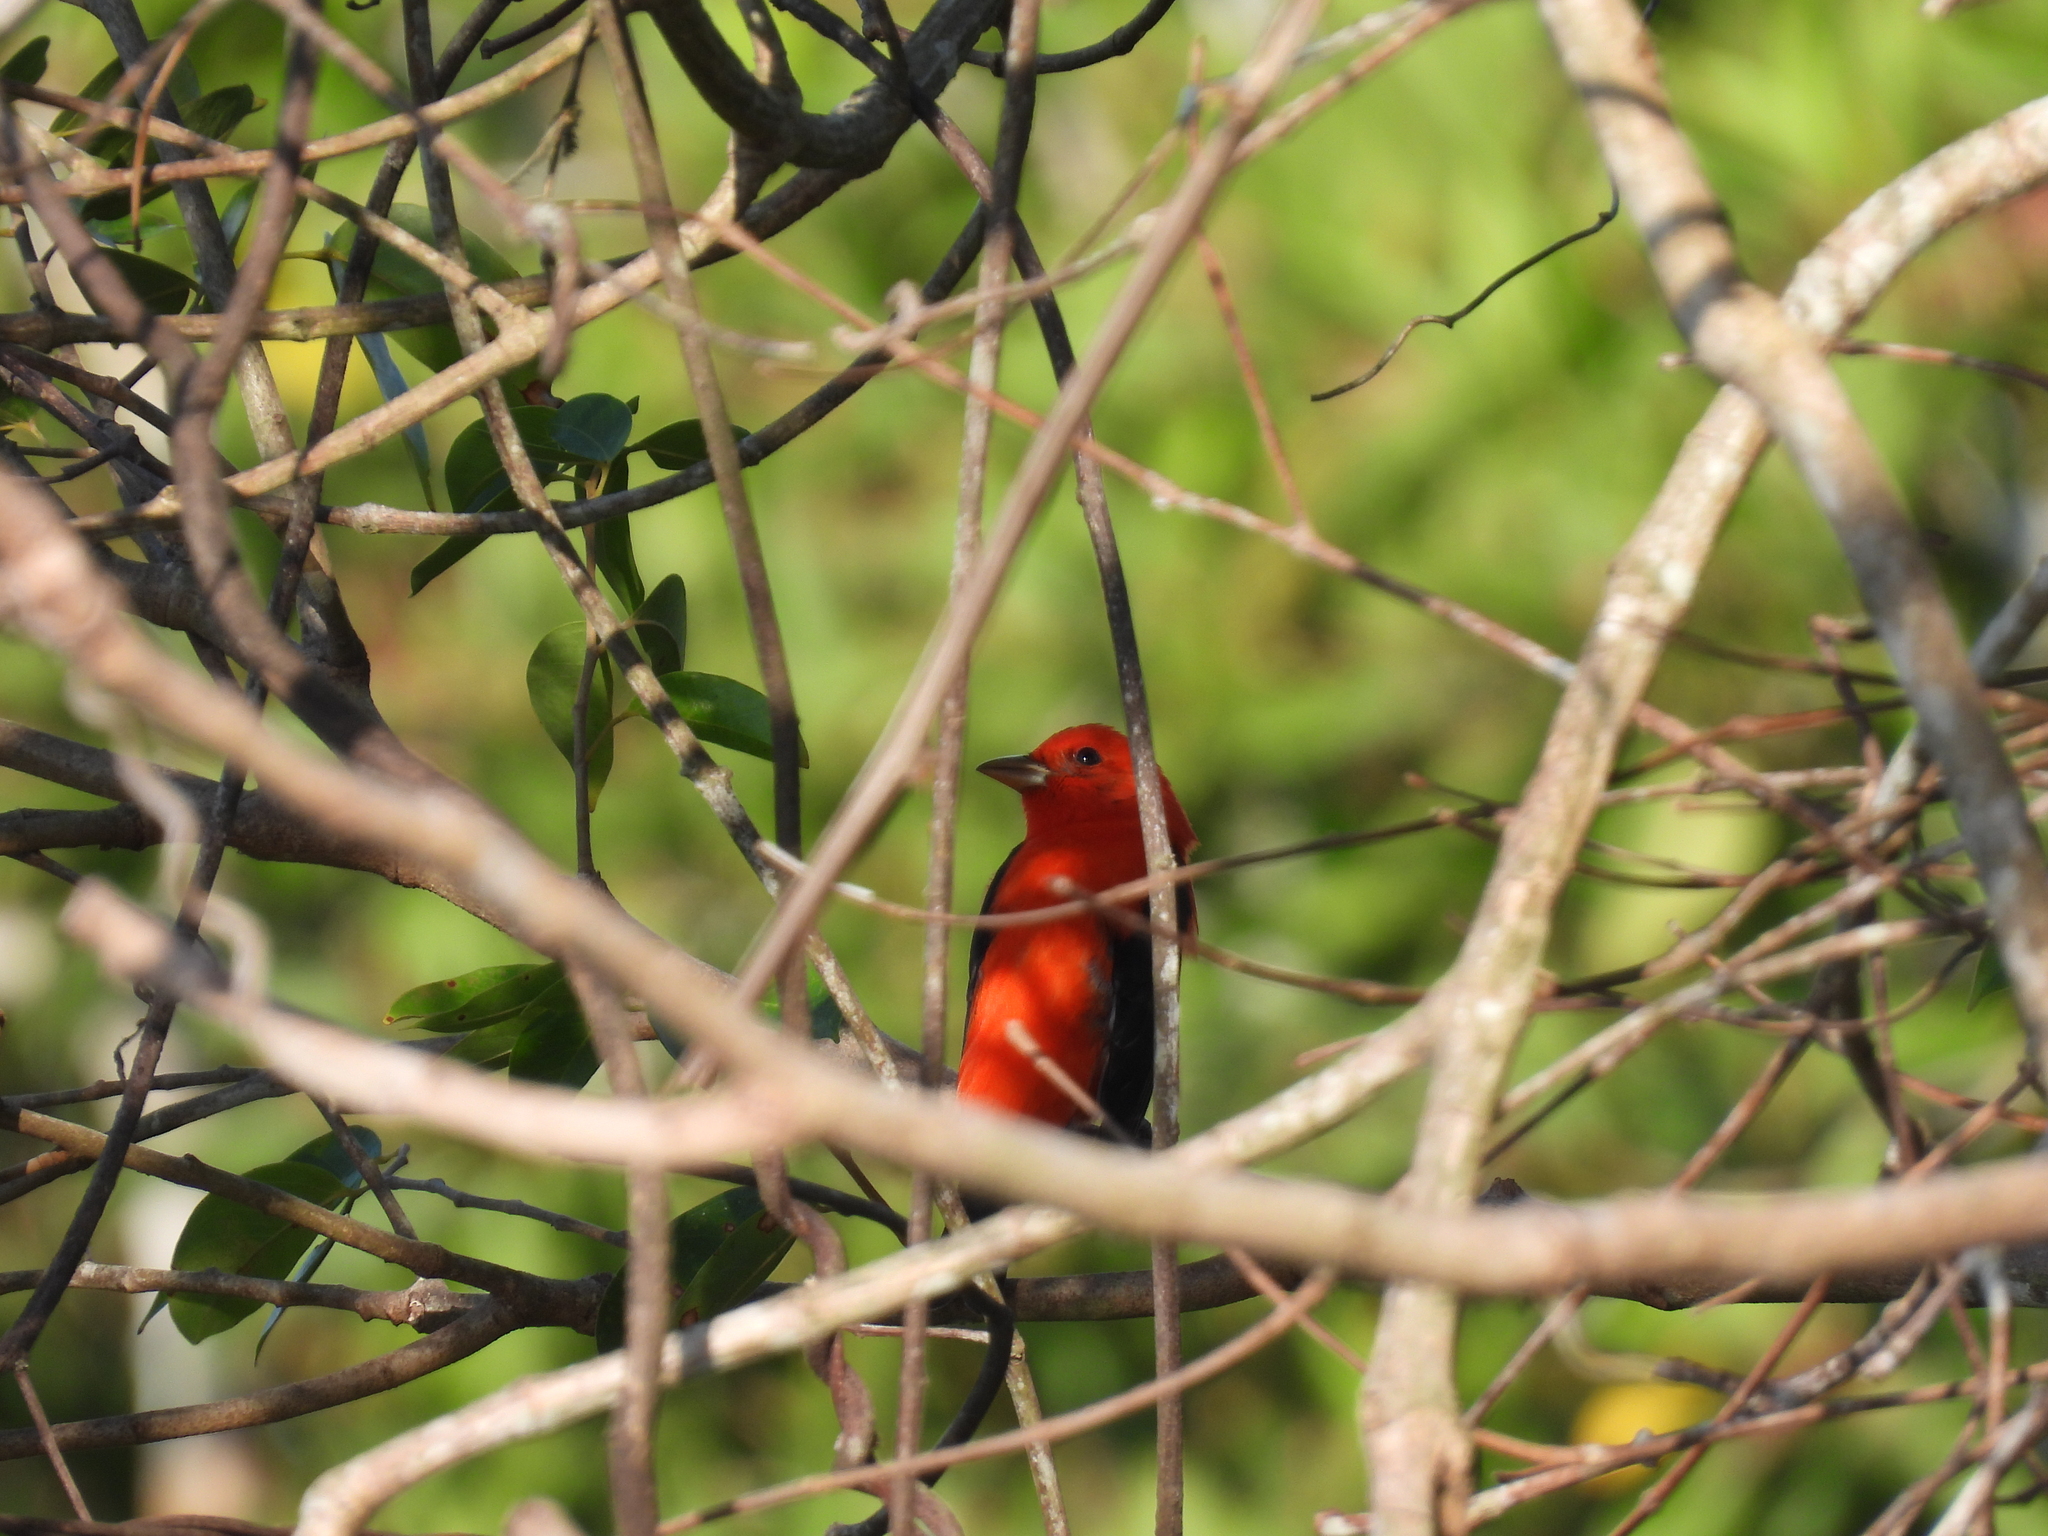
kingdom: Animalia
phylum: Chordata
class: Aves
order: Passeriformes
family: Cardinalidae
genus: Piranga
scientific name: Piranga olivacea
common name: Scarlet tanager
